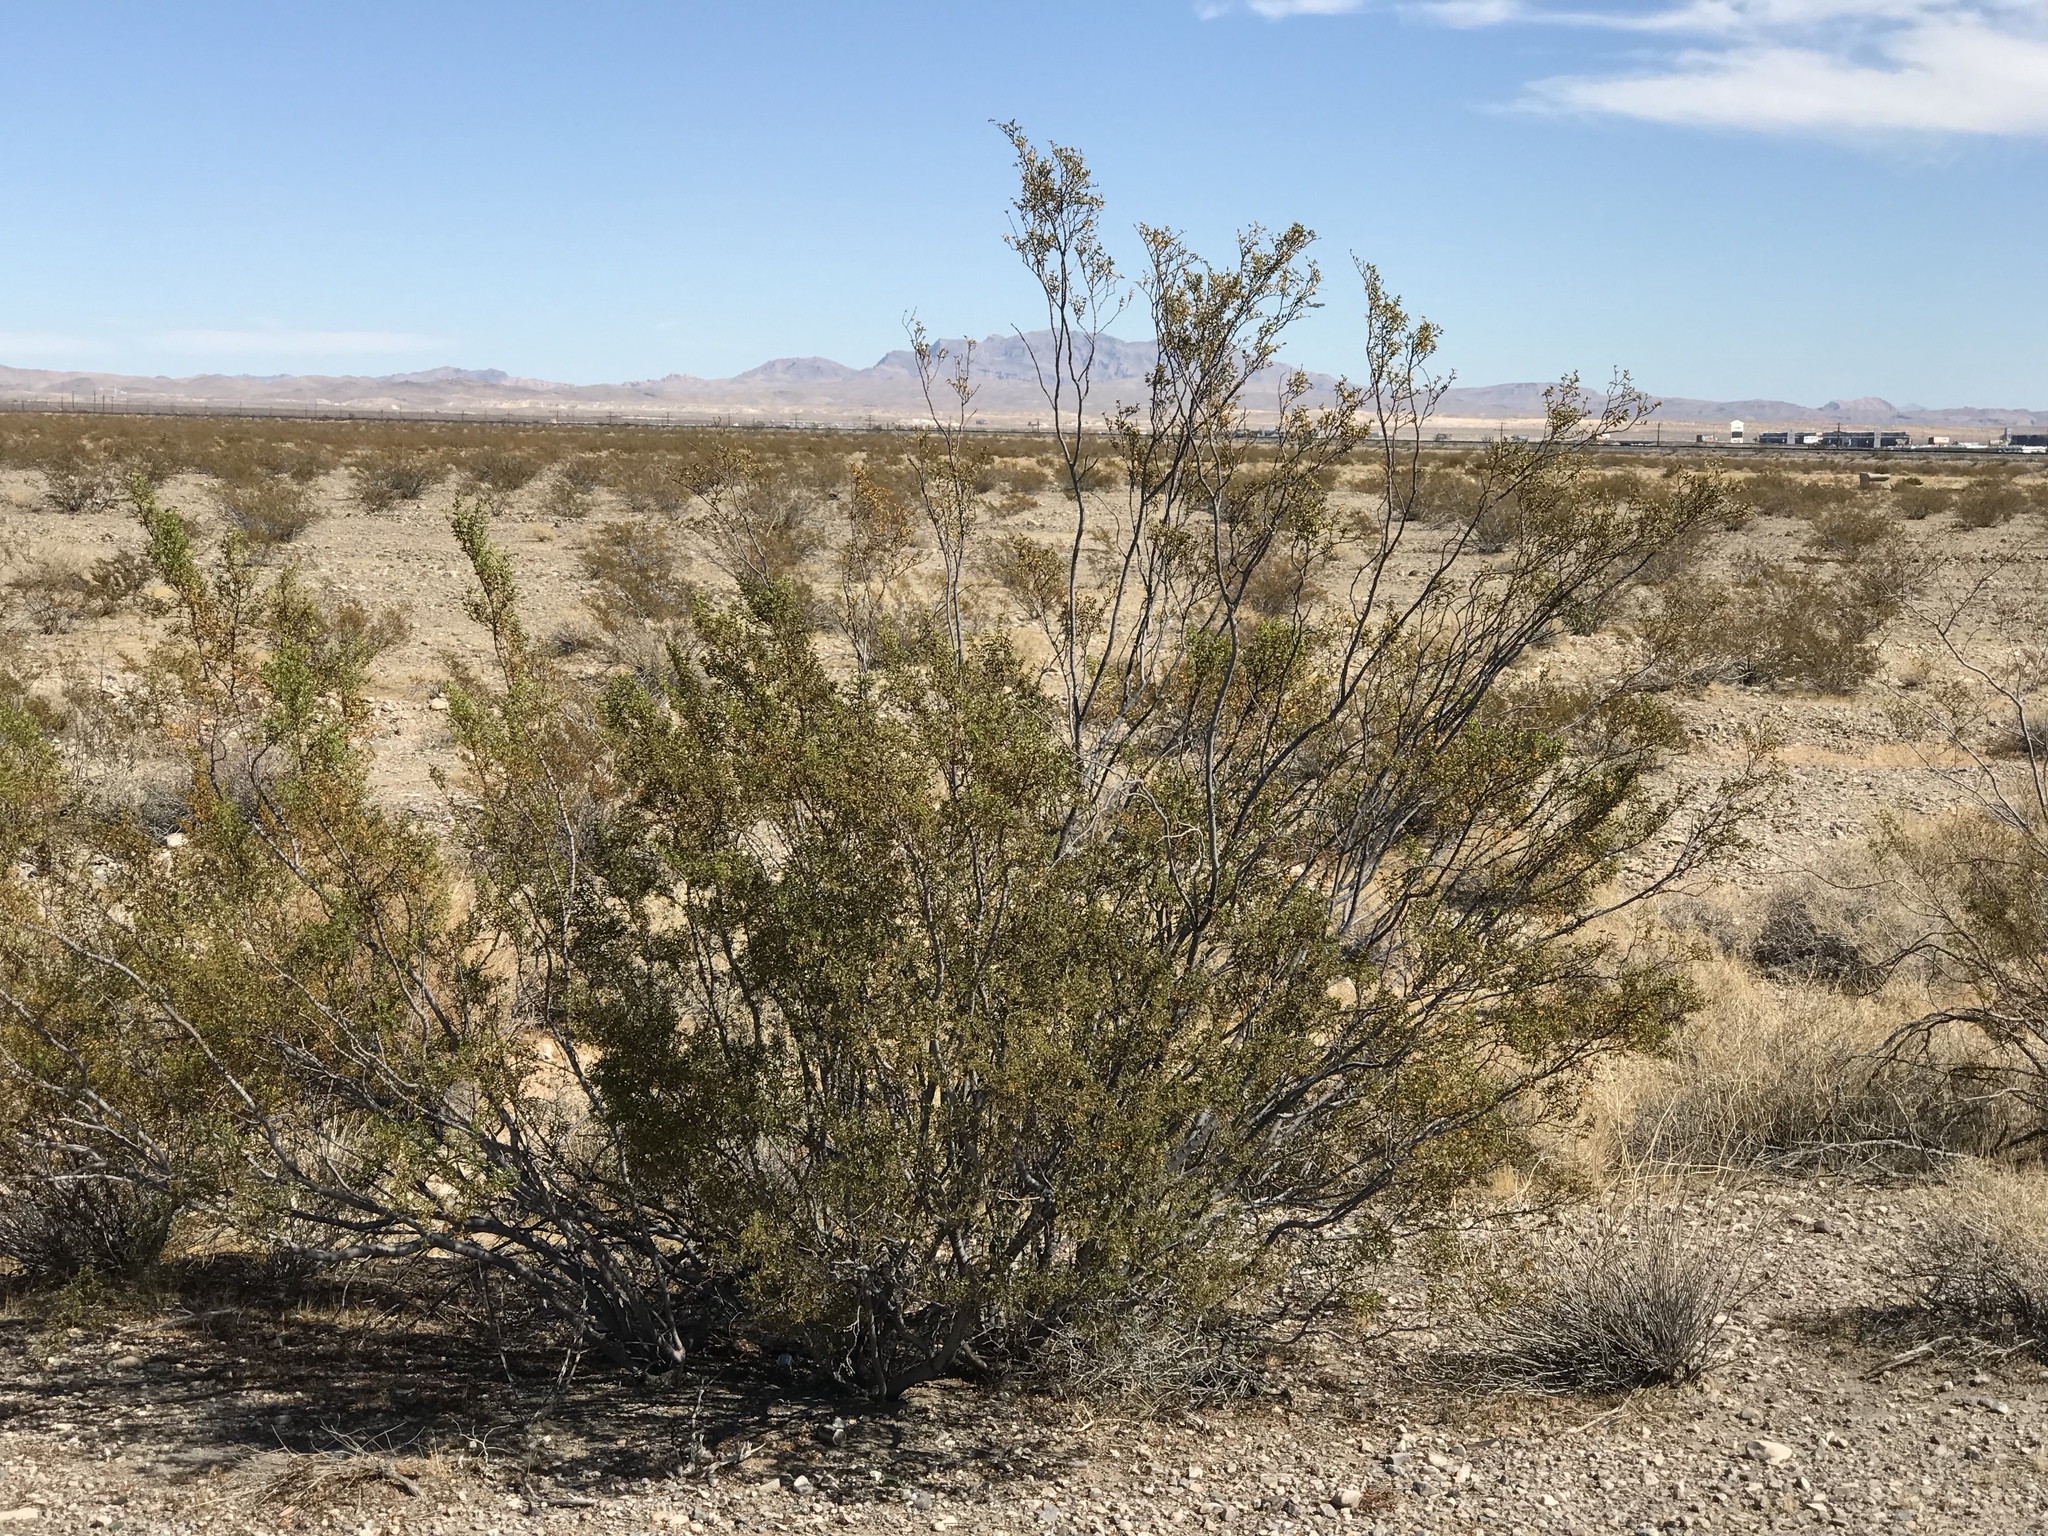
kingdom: Plantae
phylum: Tracheophyta
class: Magnoliopsida
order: Zygophyllales
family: Zygophyllaceae
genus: Larrea
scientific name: Larrea tridentata
